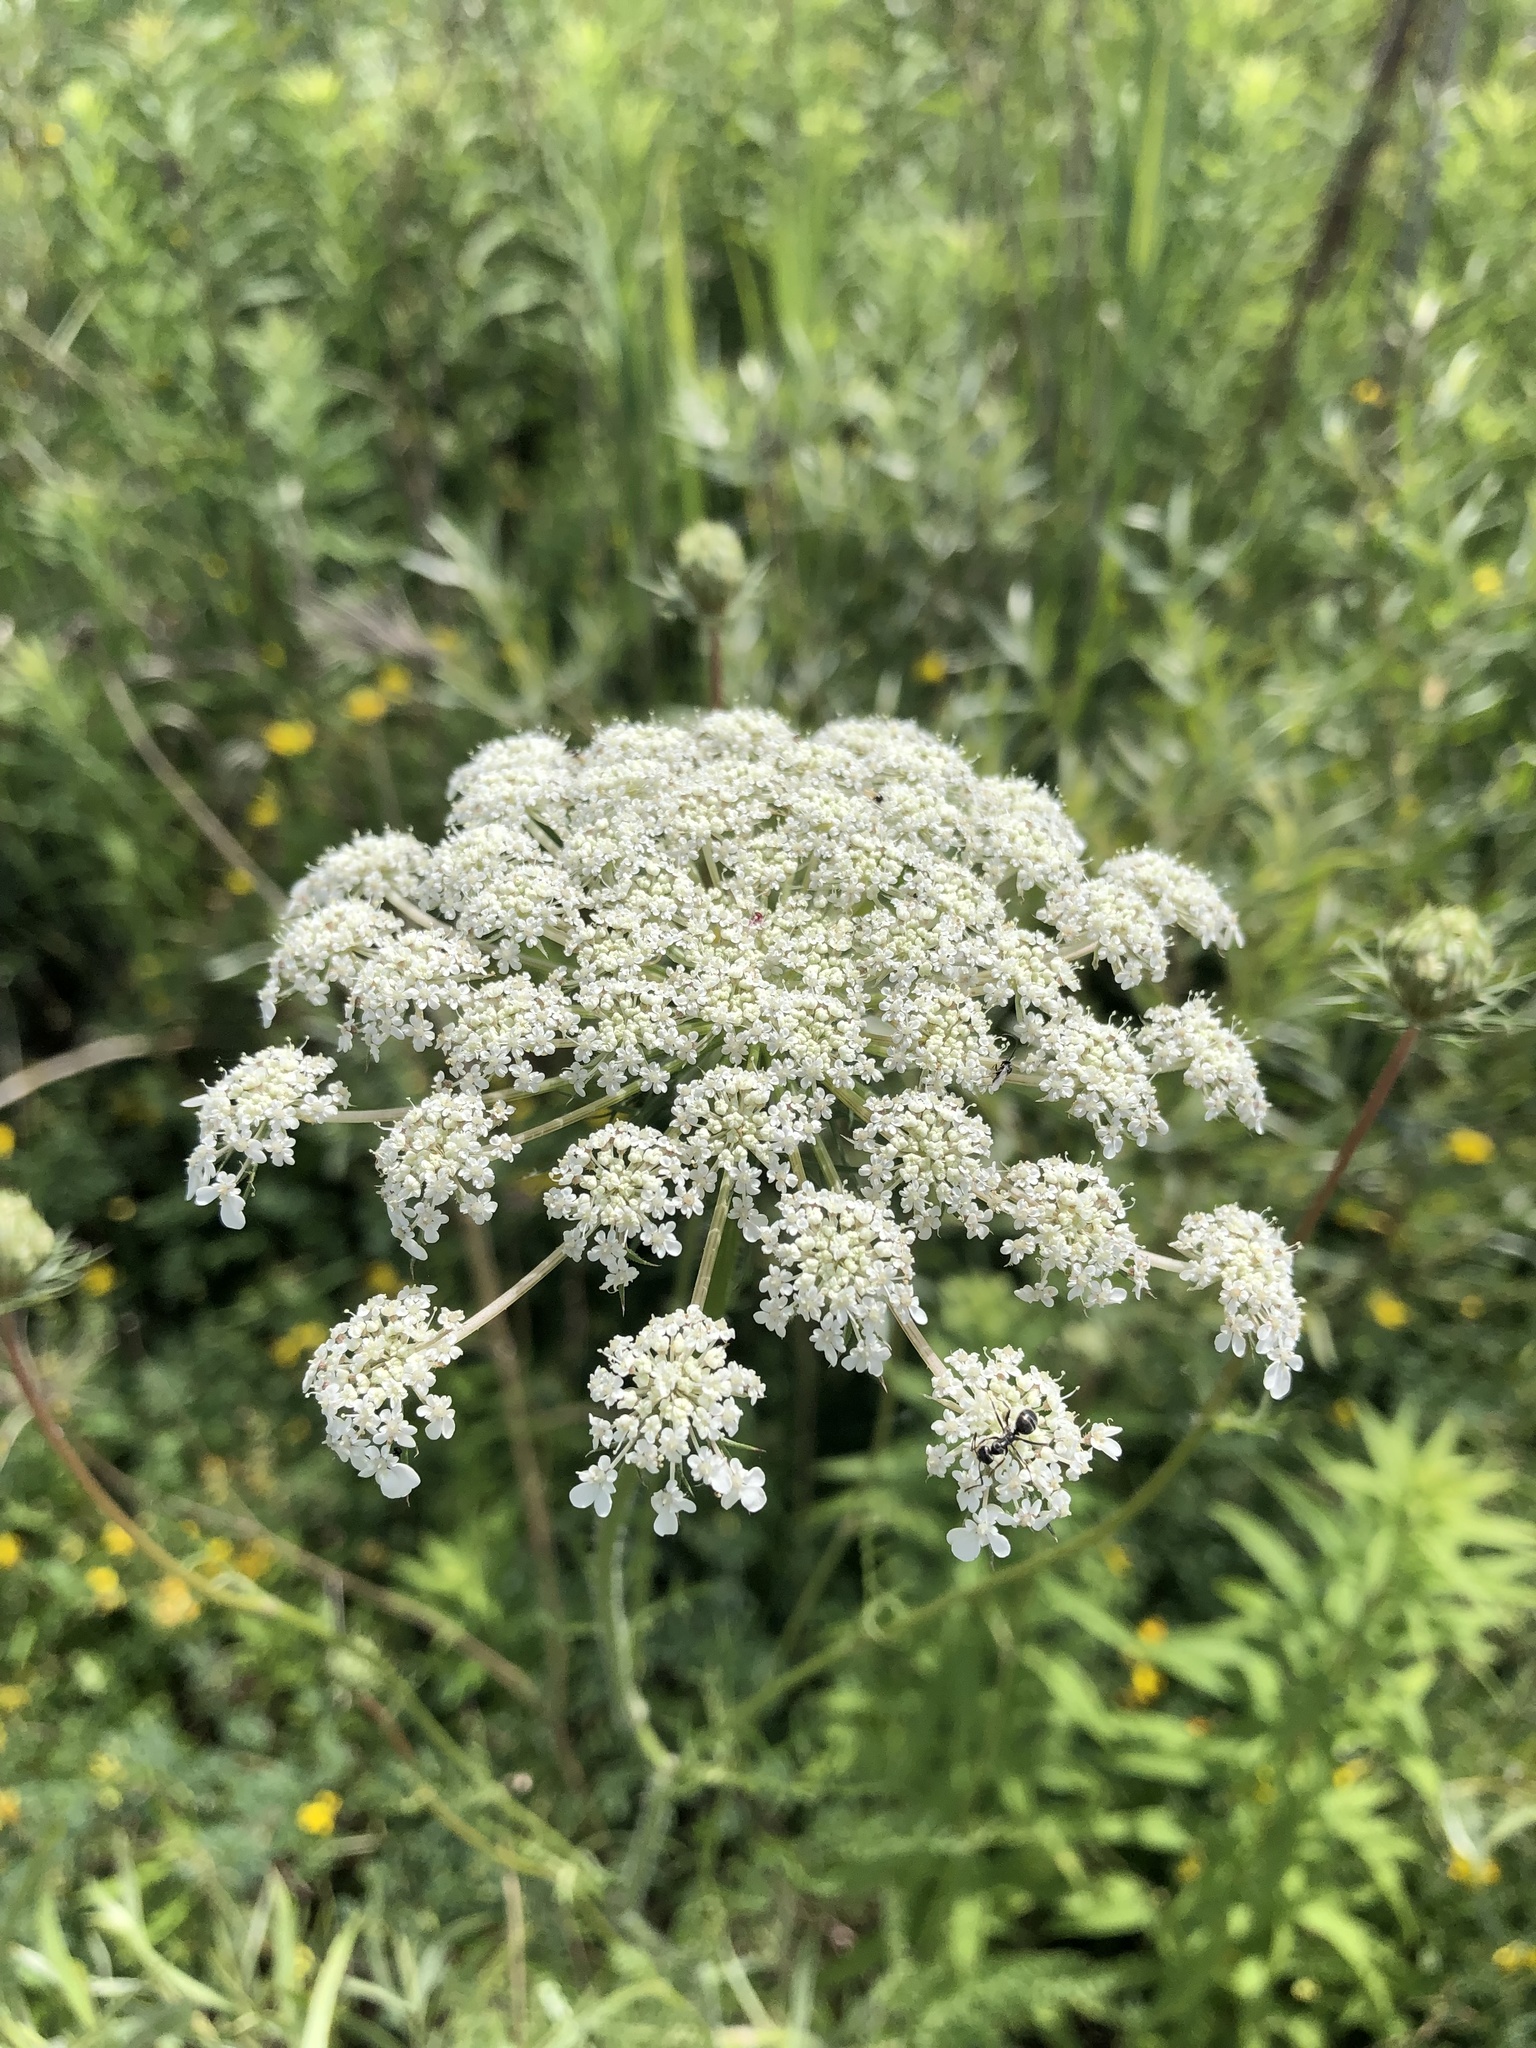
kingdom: Plantae
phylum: Tracheophyta
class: Magnoliopsida
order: Apiales
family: Apiaceae
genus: Daucus
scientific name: Daucus carota
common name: Wild carrot
